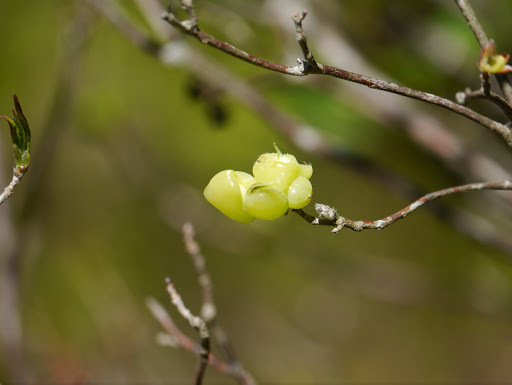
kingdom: Fungi
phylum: Basidiomycota
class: Exobasidiomycetes
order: Exobasidiales
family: Exobasidiaceae
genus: Exobasidium
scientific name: Exobasidium vaccinii
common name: Cowberry redleaf
